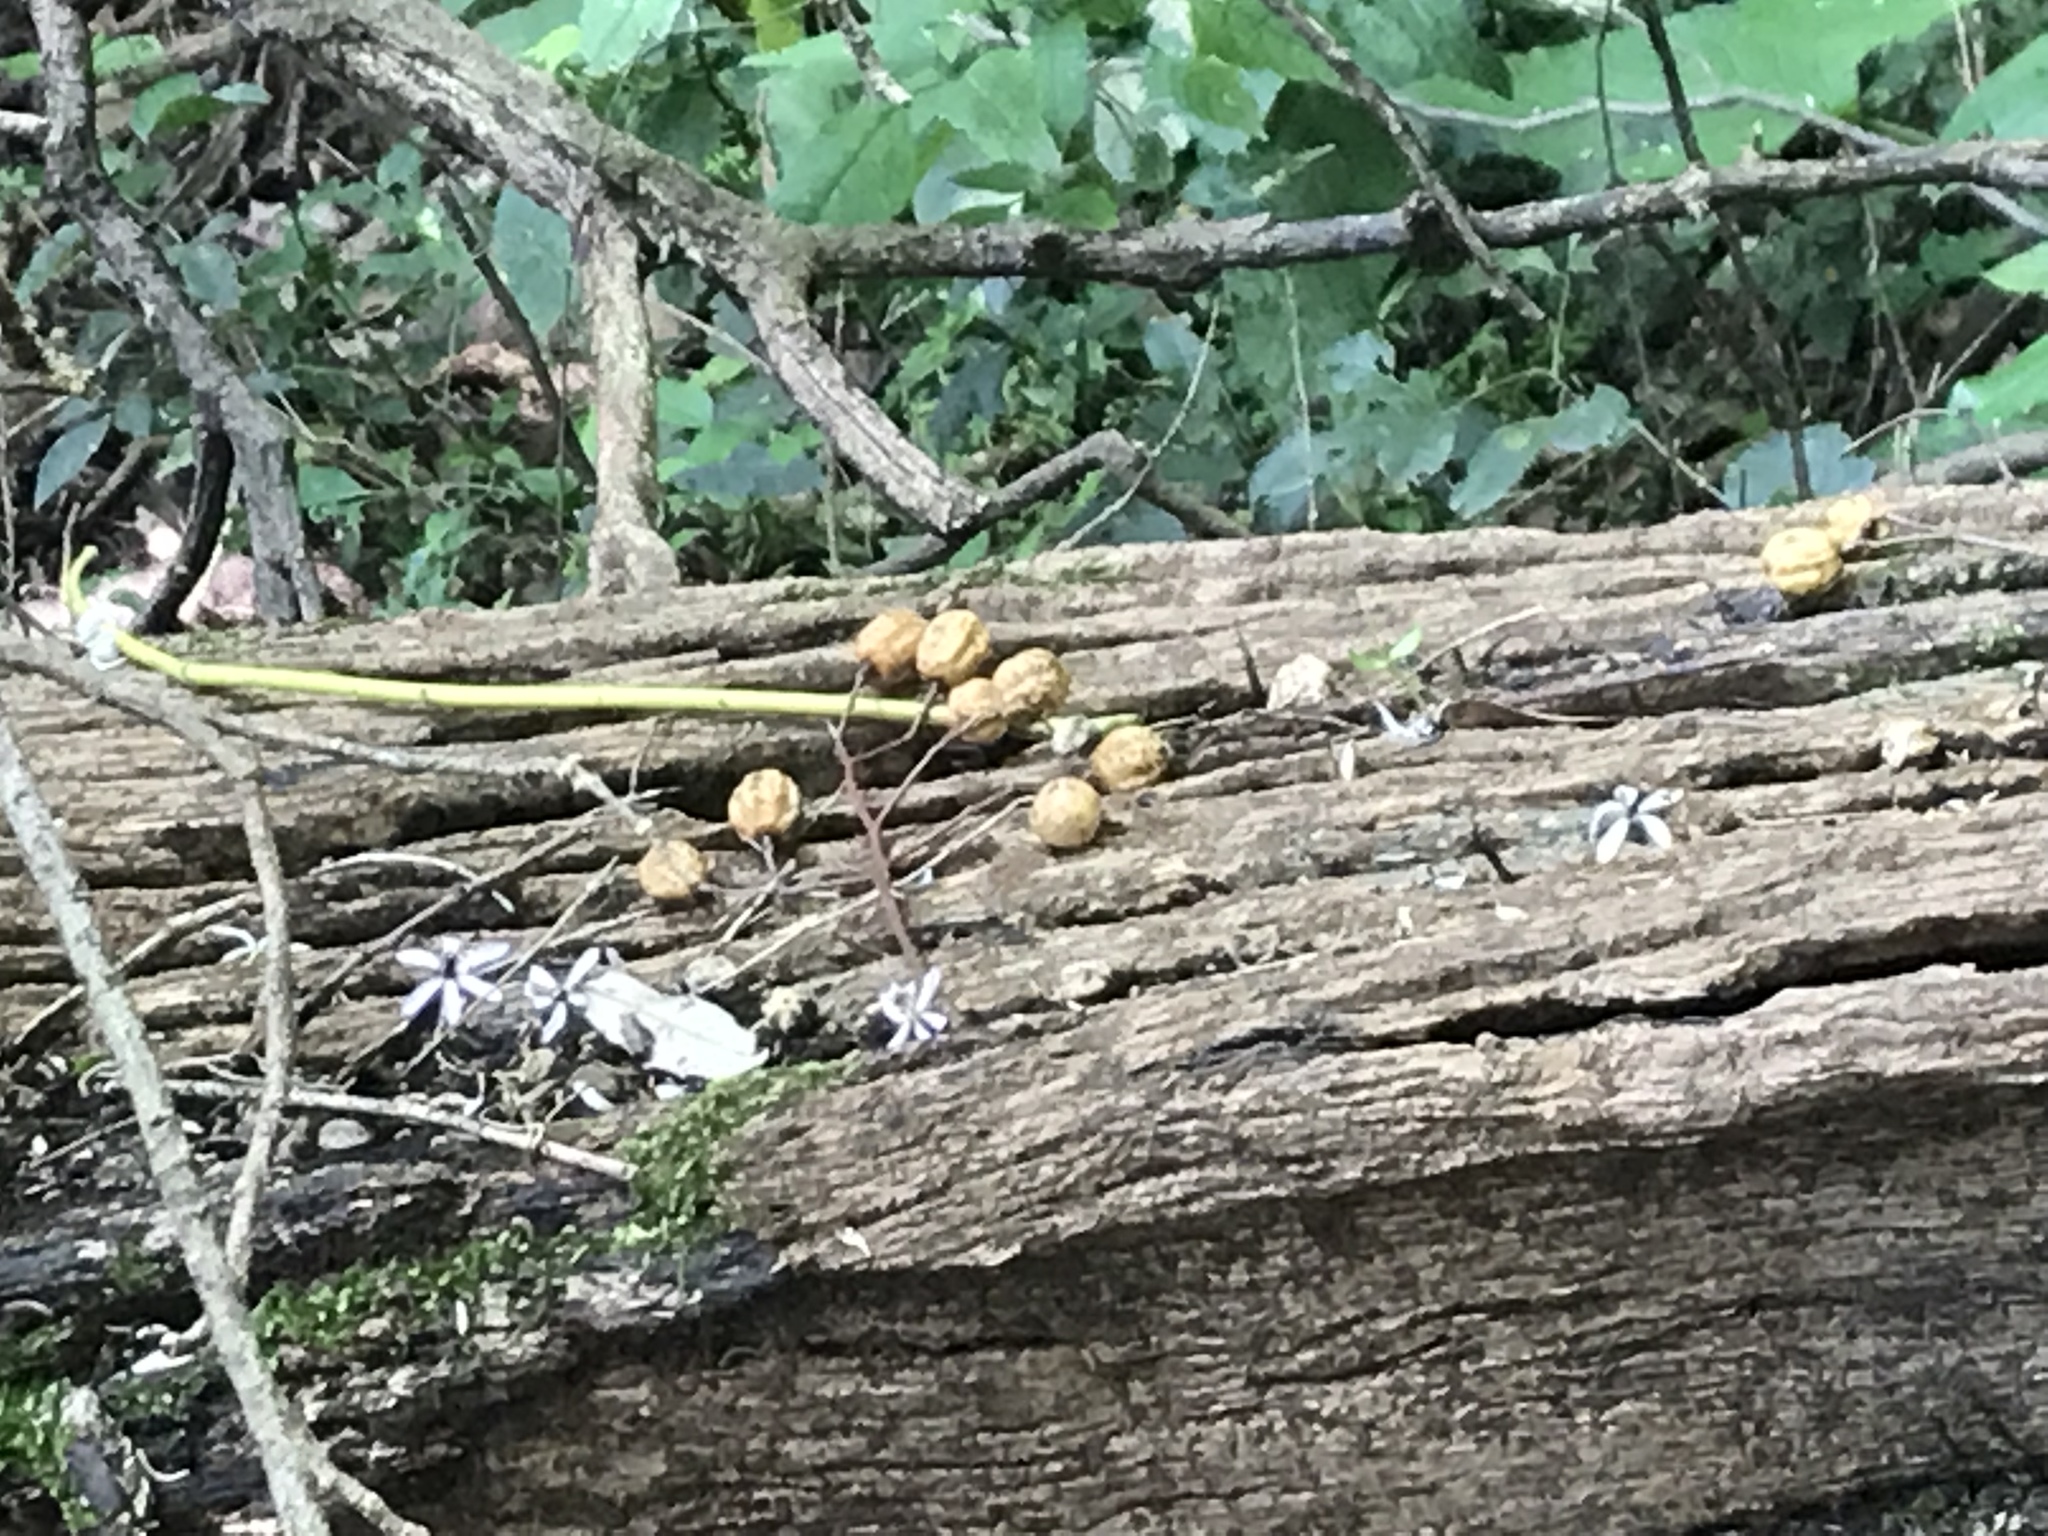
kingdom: Plantae
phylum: Tracheophyta
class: Magnoliopsida
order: Sapindales
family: Meliaceae
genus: Melia
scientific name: Melia azedarach
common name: Chinaberrytree
